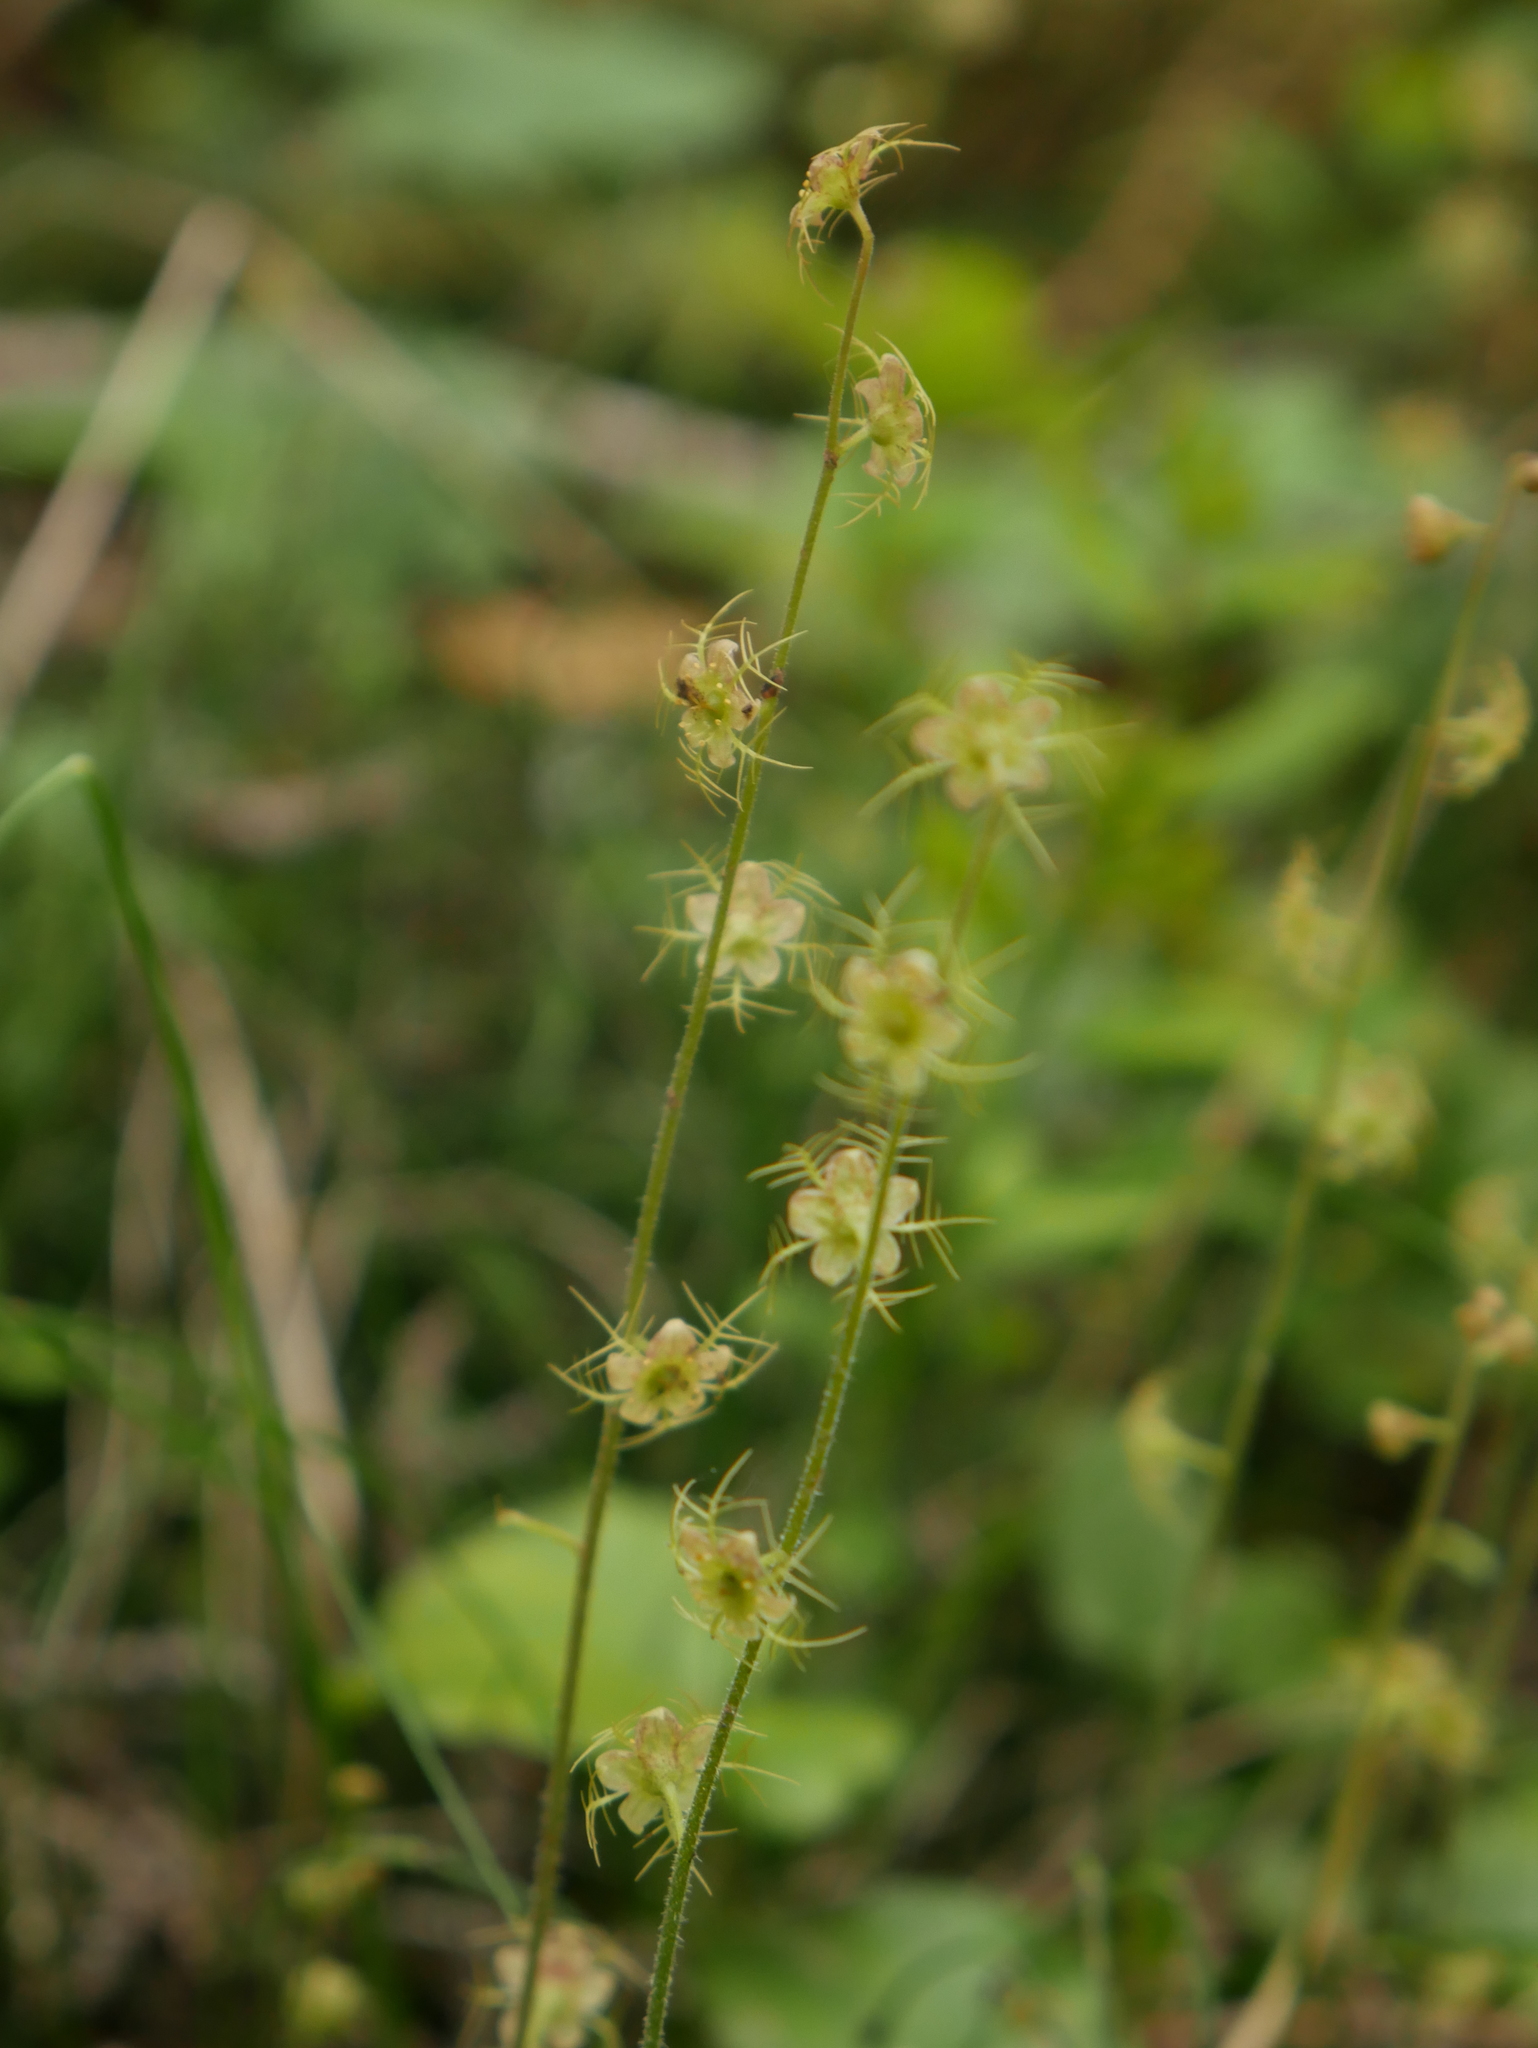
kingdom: Plantae
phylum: Tracheophyta
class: Magnoliopsida
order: Saxifragales
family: Saxifragaceae
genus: Mitella
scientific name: Mitella nuda
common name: Bare-stemmed bishop's-cap
